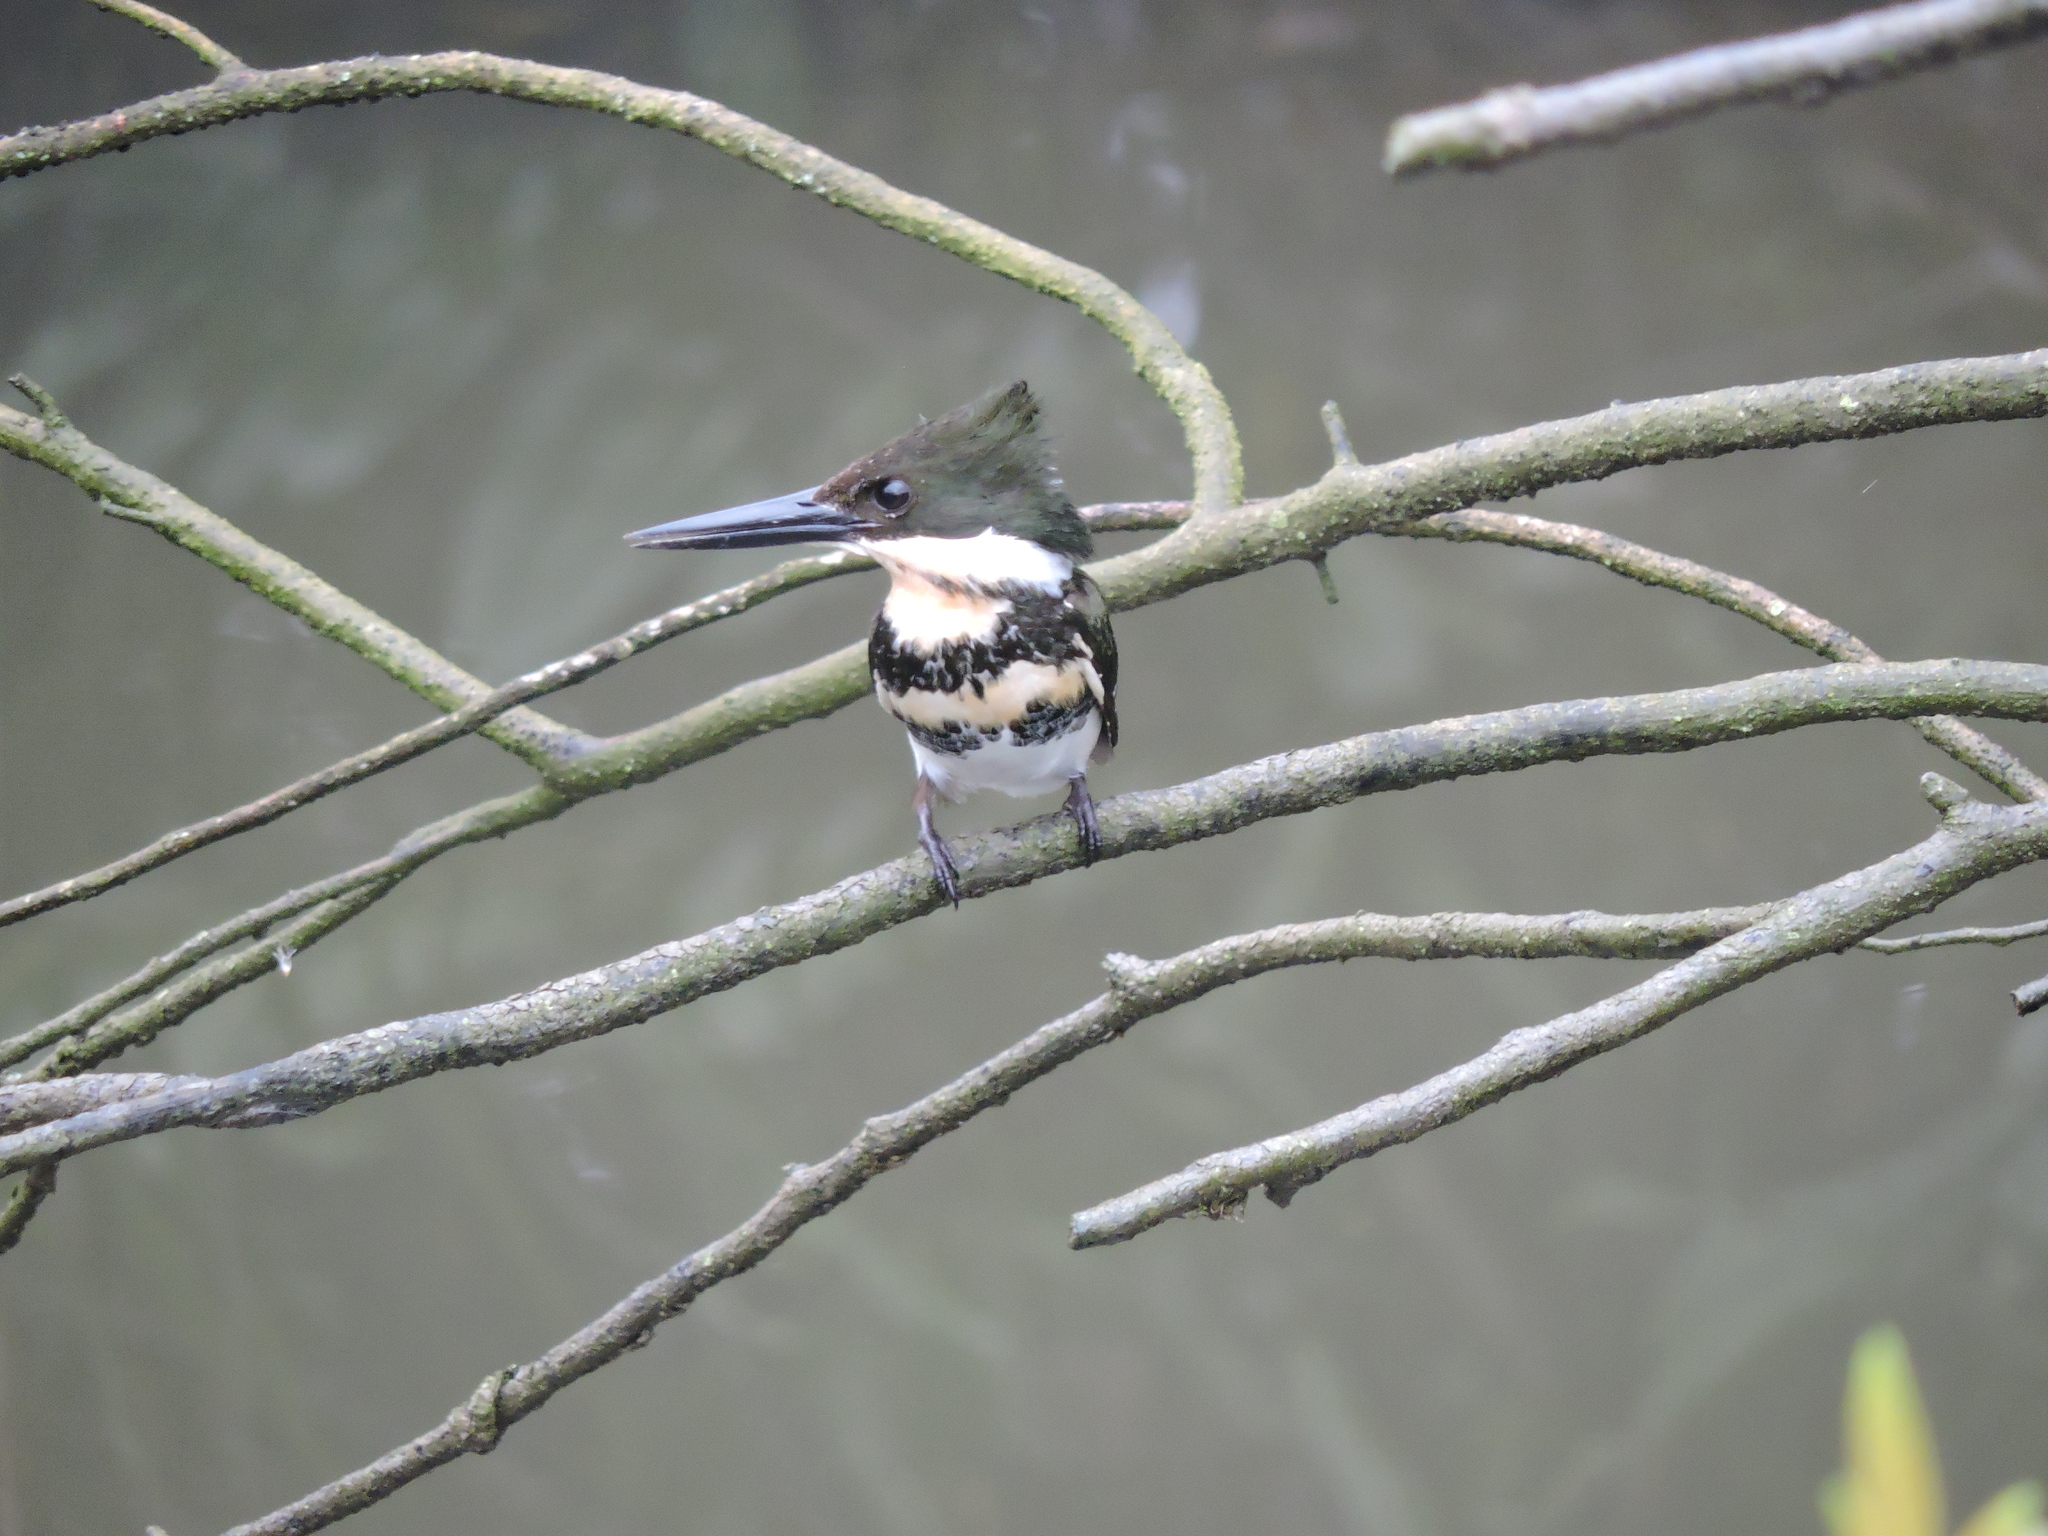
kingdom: Animalia
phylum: Chordata
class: Aves
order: Coraciiformes
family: Alcedinidae
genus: Chloroceryle
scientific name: Chloroceryle americana
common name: Green kingfisher
